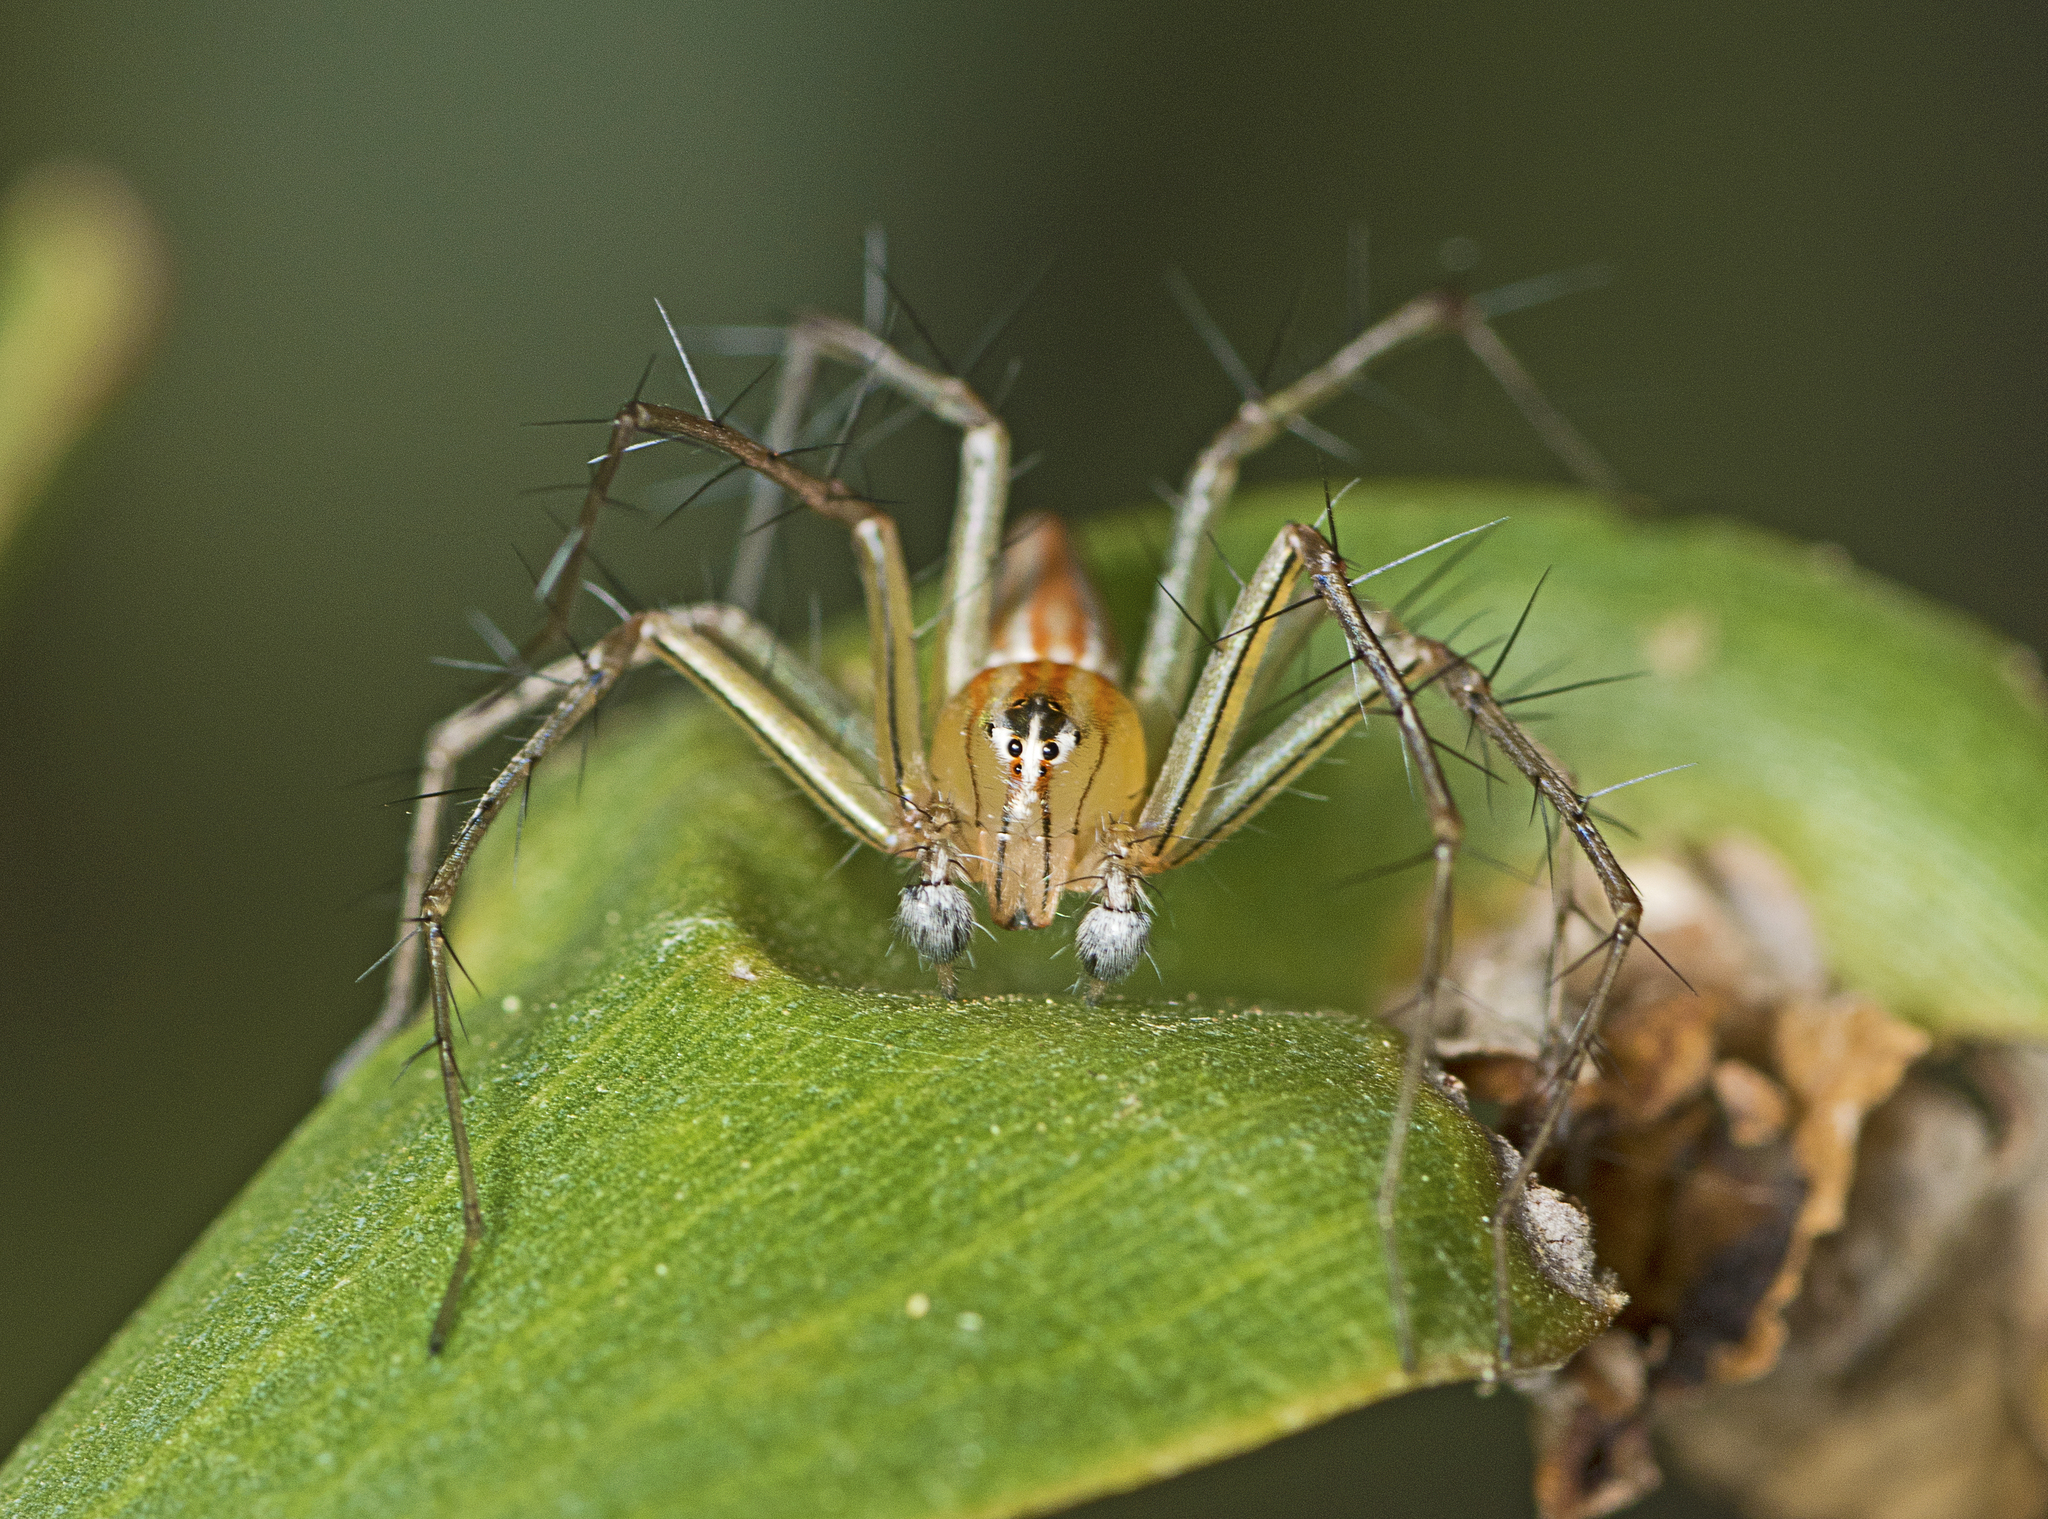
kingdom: Animalia
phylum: Arthropoda
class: Arachnida
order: Araneae
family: Oxyopidae
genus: Oxyopes
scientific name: Oxyopes macilentus
